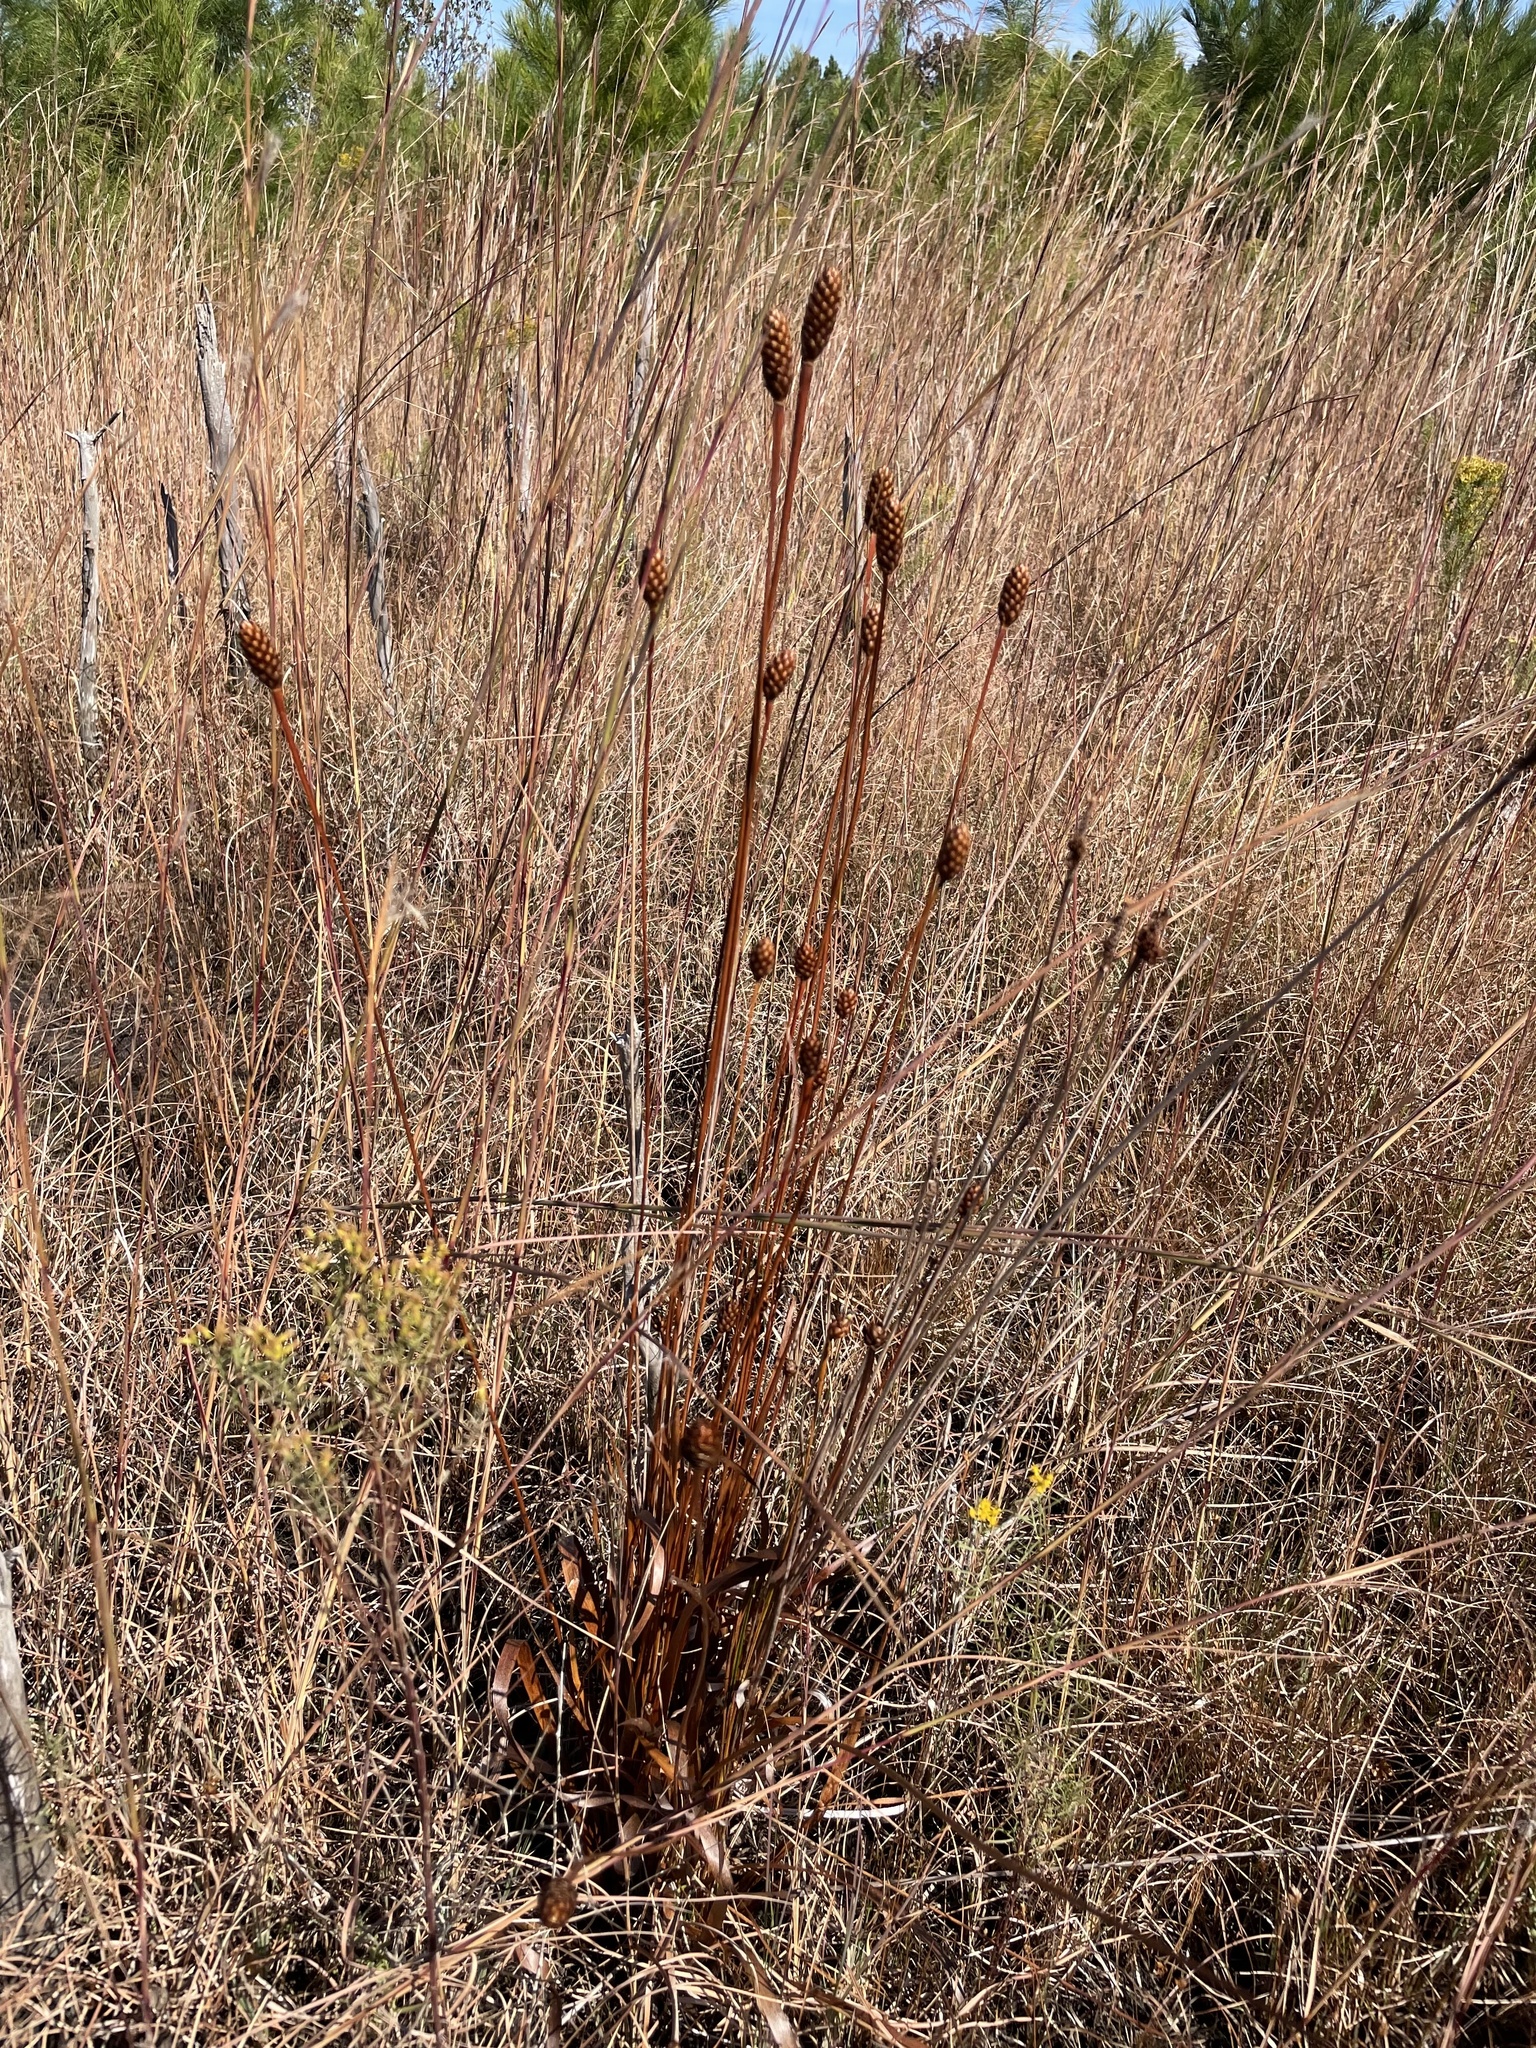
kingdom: Plantae
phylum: Tracheophyta
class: Liliopsida
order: Poales
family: Xyridaceae
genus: Xyris
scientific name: Xyris laxifolia
